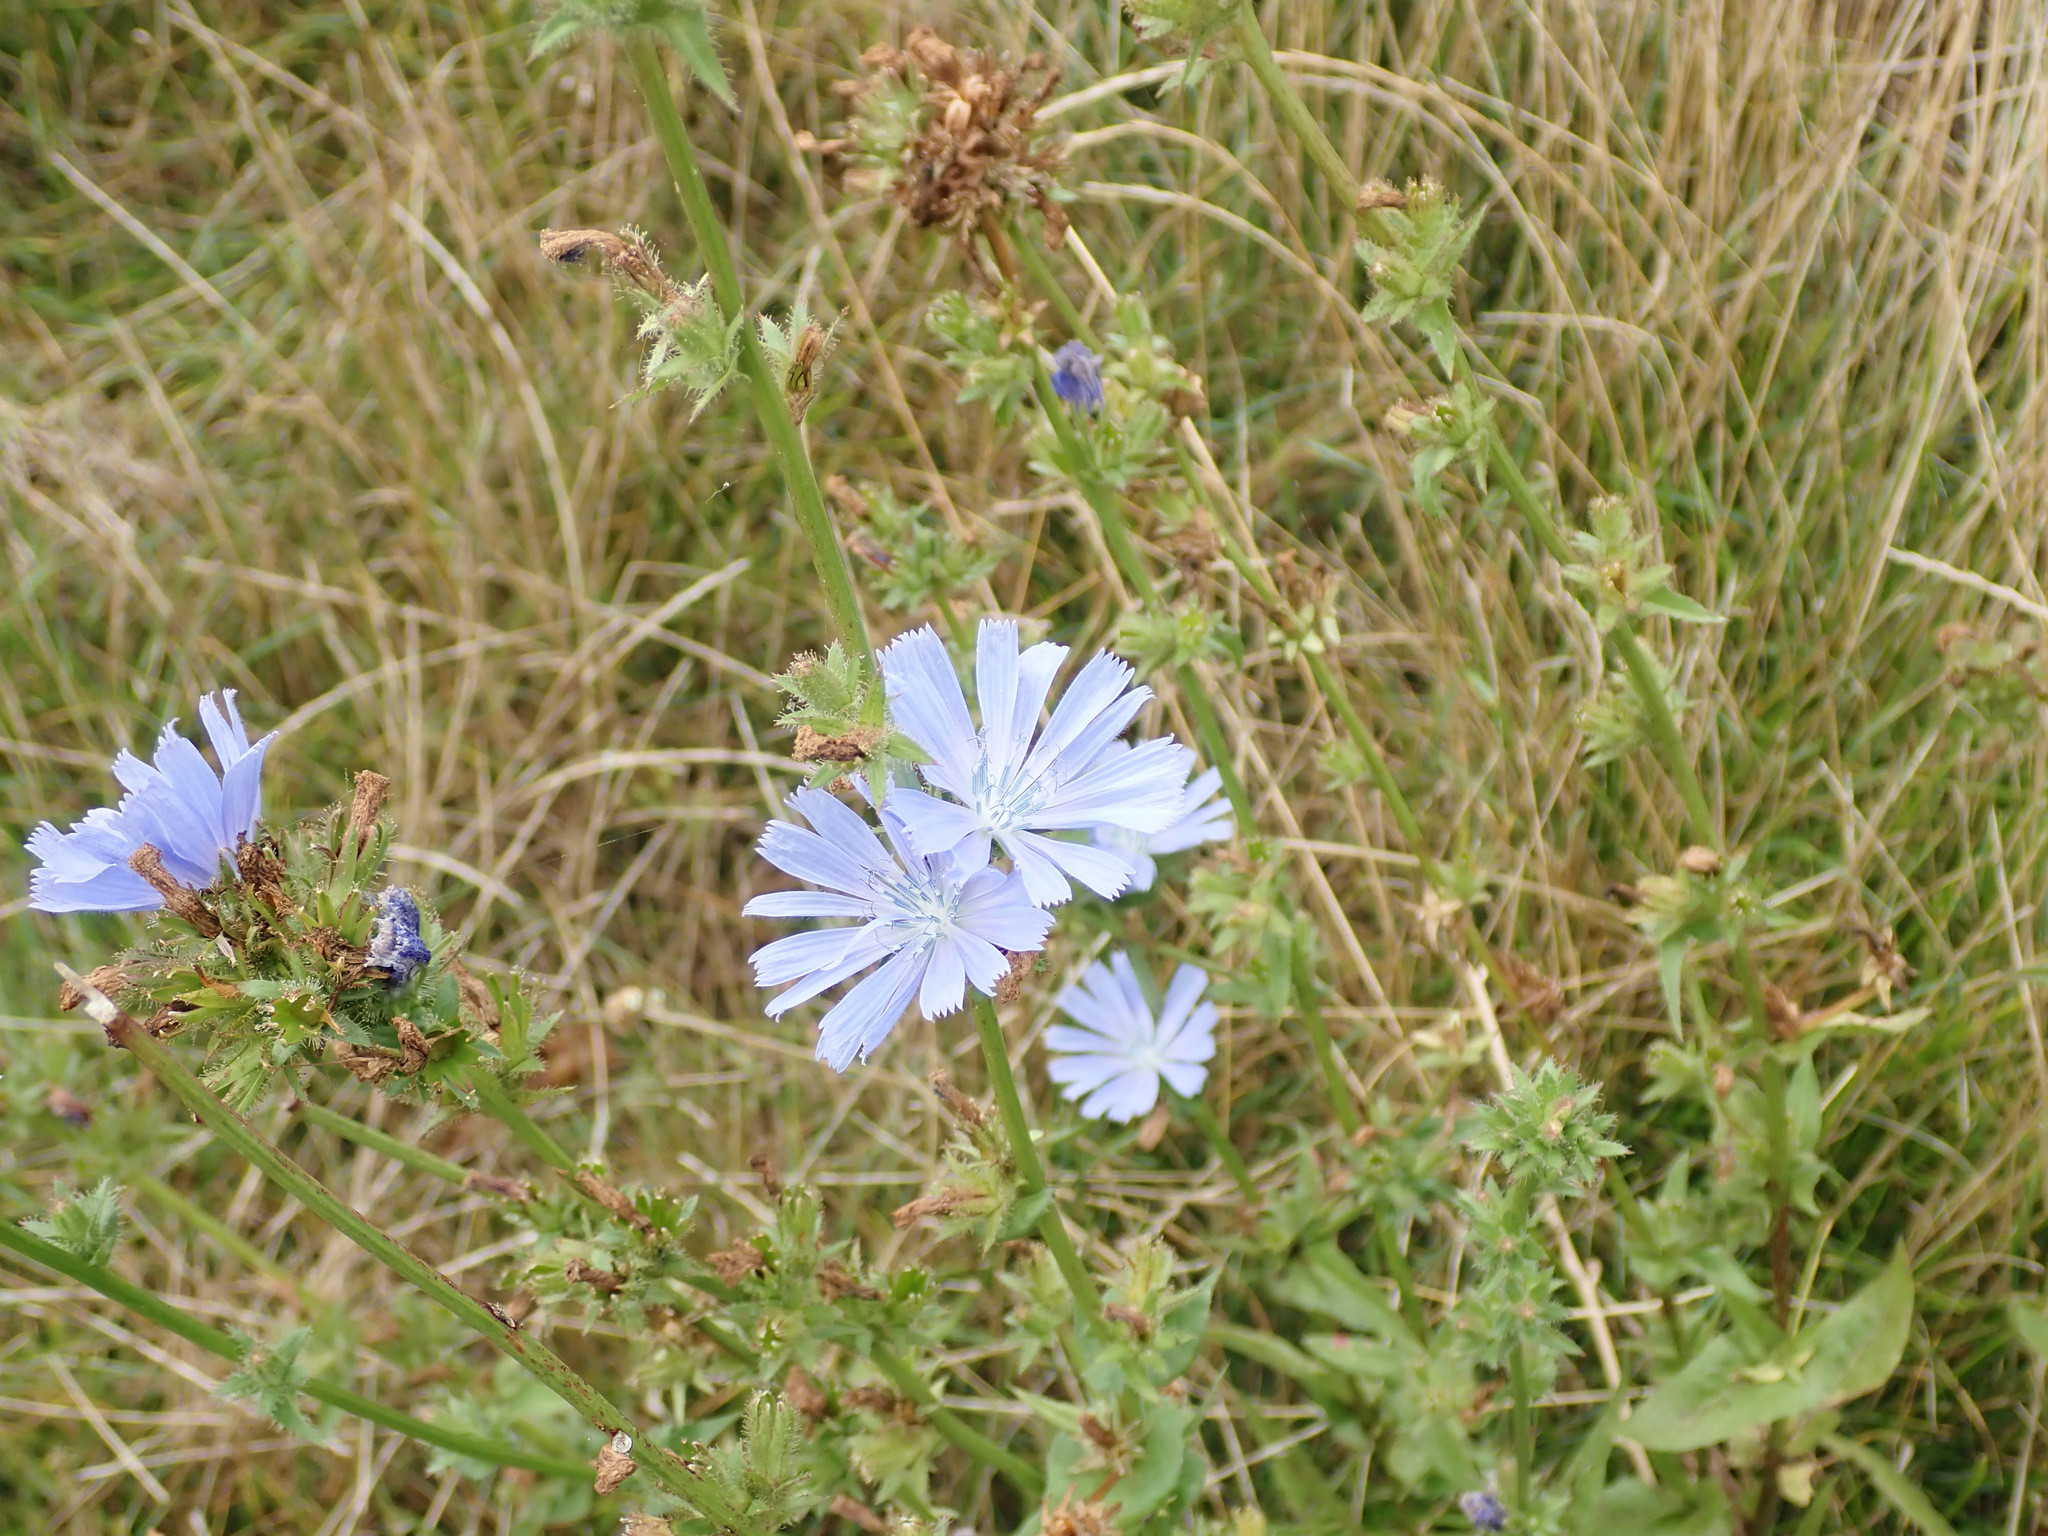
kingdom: Plantae
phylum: Tracheophyta
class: Magnoliopsida
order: Asterales
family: Asteraceae
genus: Cichorium
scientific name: Cichorium intybus
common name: Chicory
